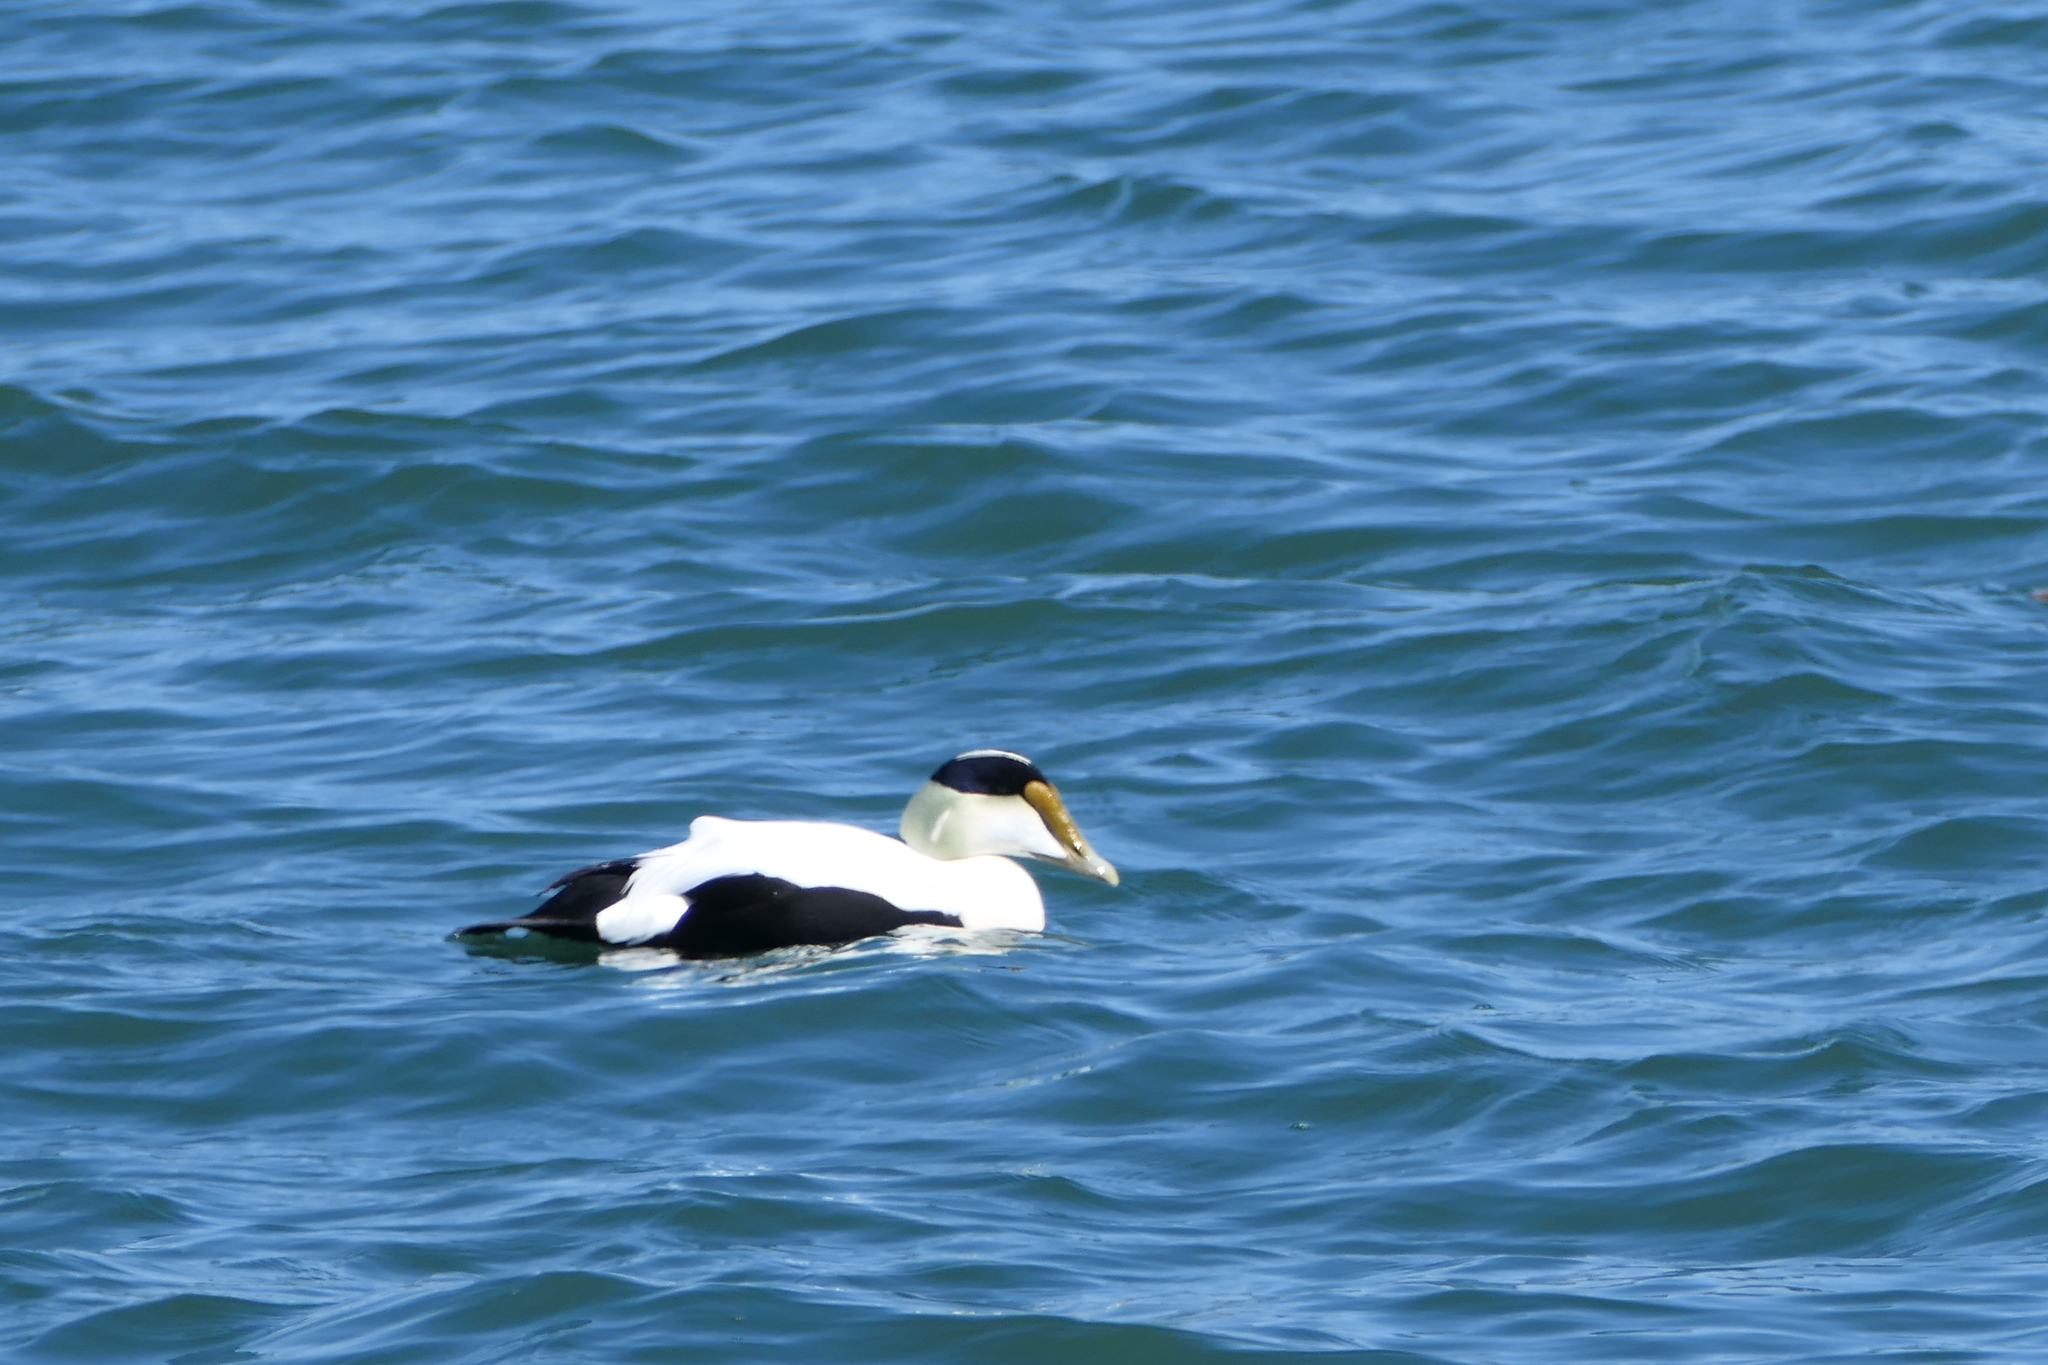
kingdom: Animalia
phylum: Chordata
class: Aves
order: Anseriformes
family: Anatidae
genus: Somateria
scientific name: Somateria mollissima
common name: Common eider
